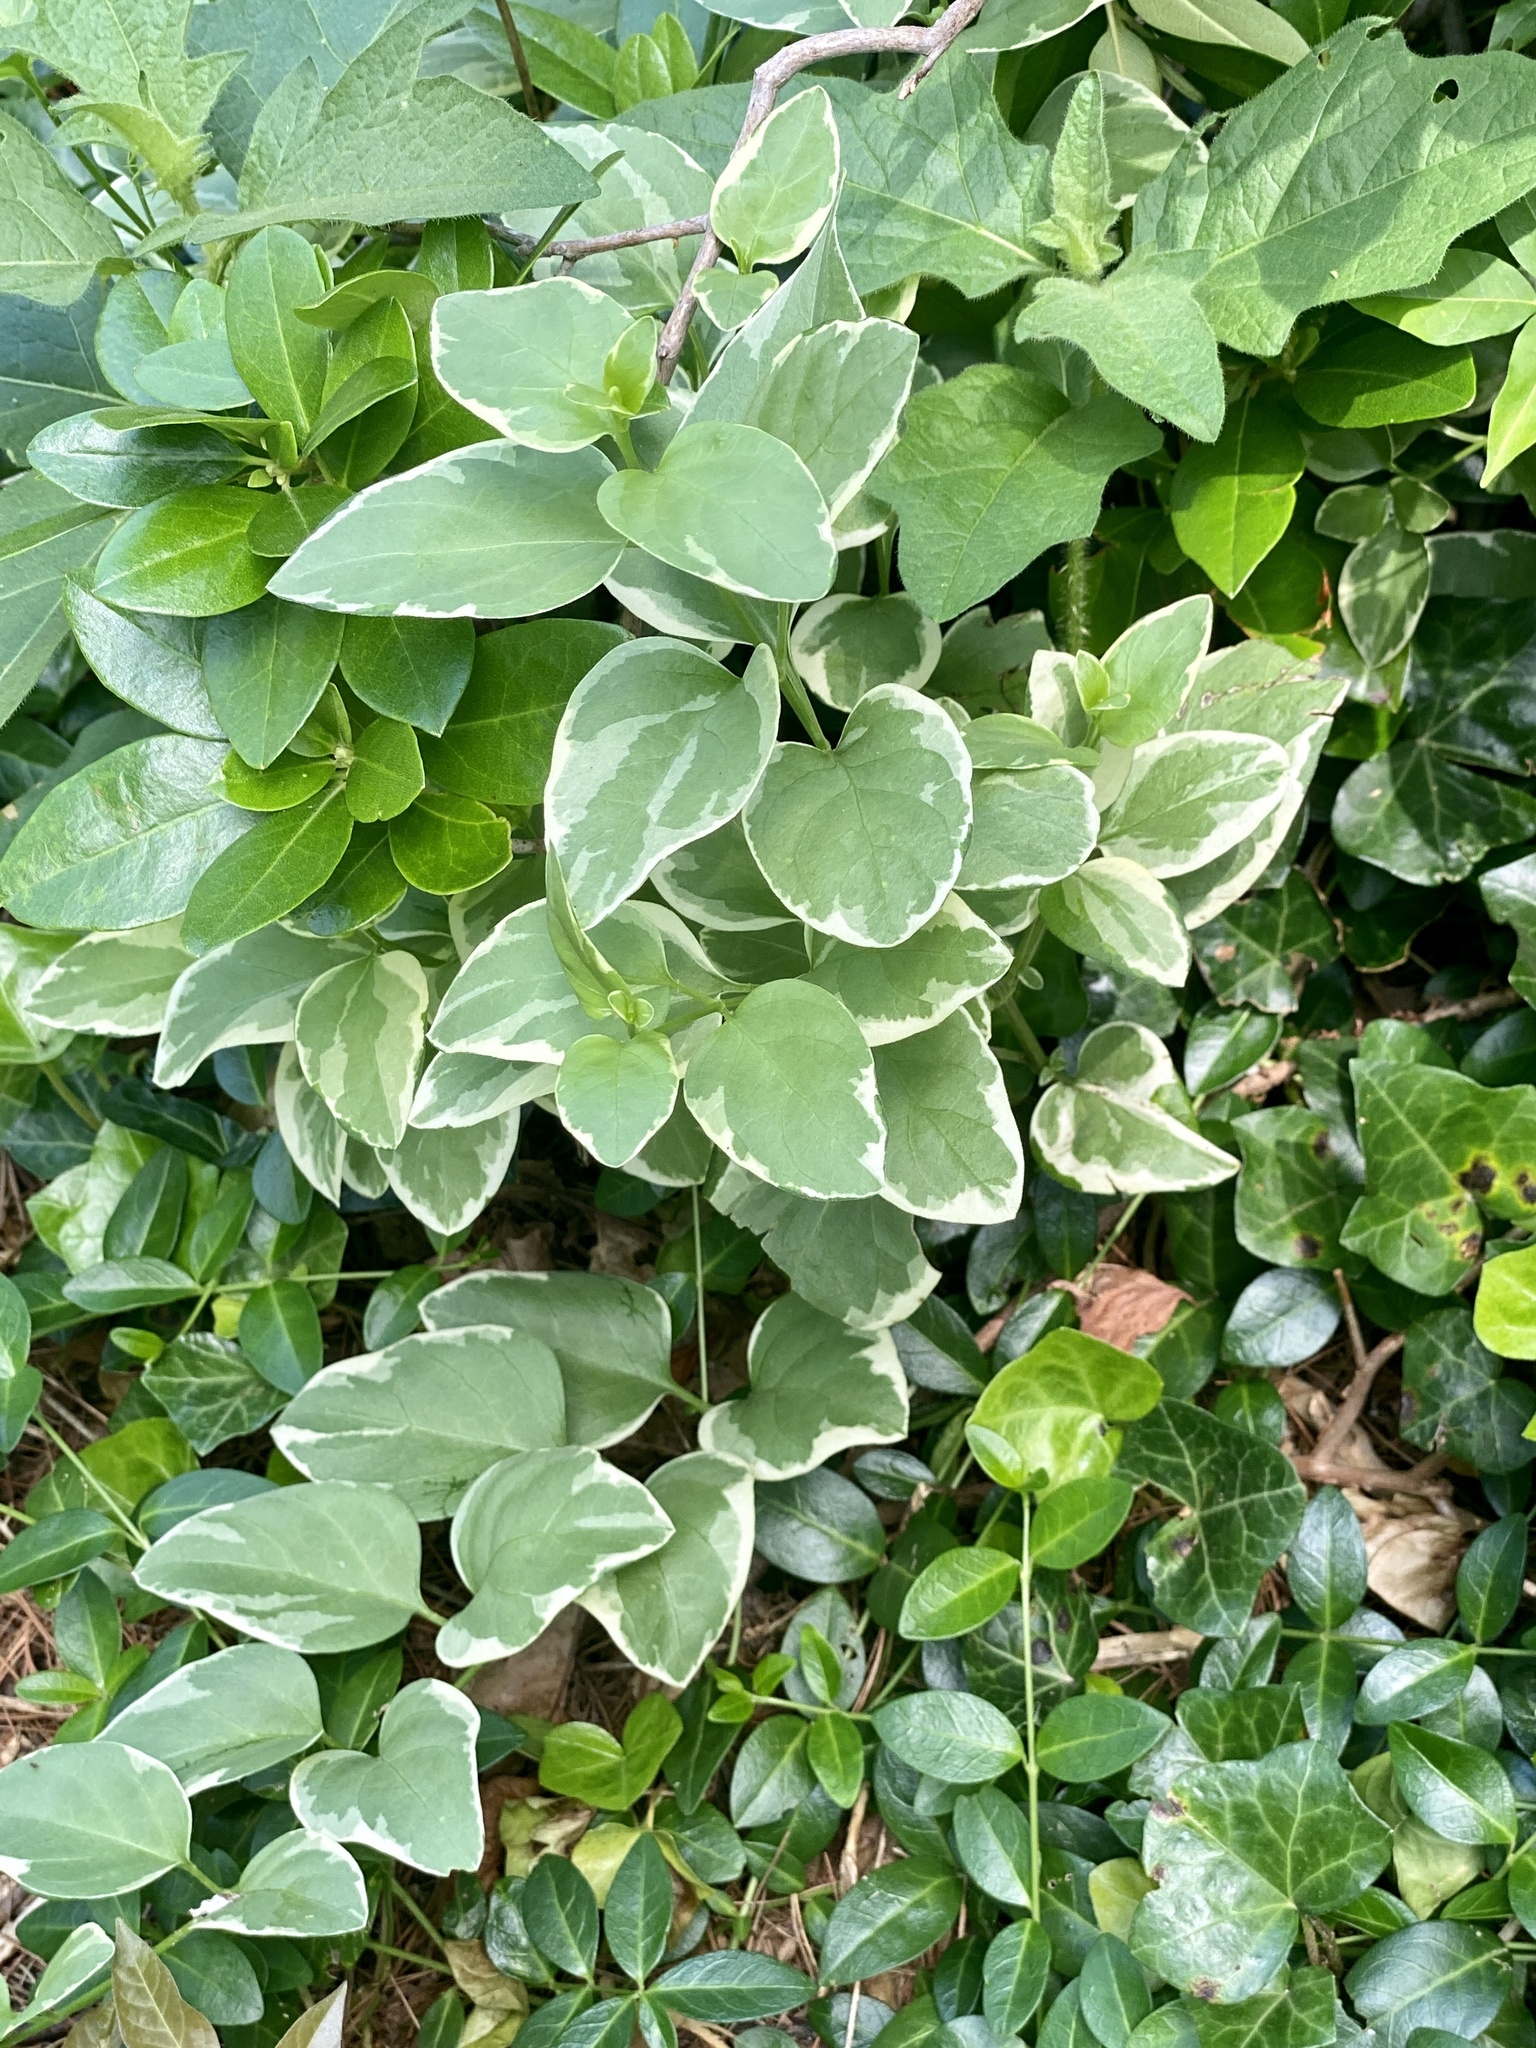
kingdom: Plantae
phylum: Tracheophyta
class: Magnoliopsida
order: Gentianales
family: Apocynaceae
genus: Vinca
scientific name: Vinca major
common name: Greater periwinkle
